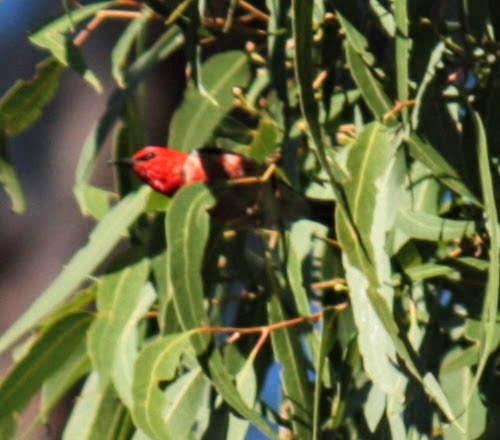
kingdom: Animalia
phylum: Chordata
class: Aves
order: Passeriformes
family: Meliphagidae
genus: Myzomela
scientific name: Myzomela sanguinolenta
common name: Scarlet myzomela
